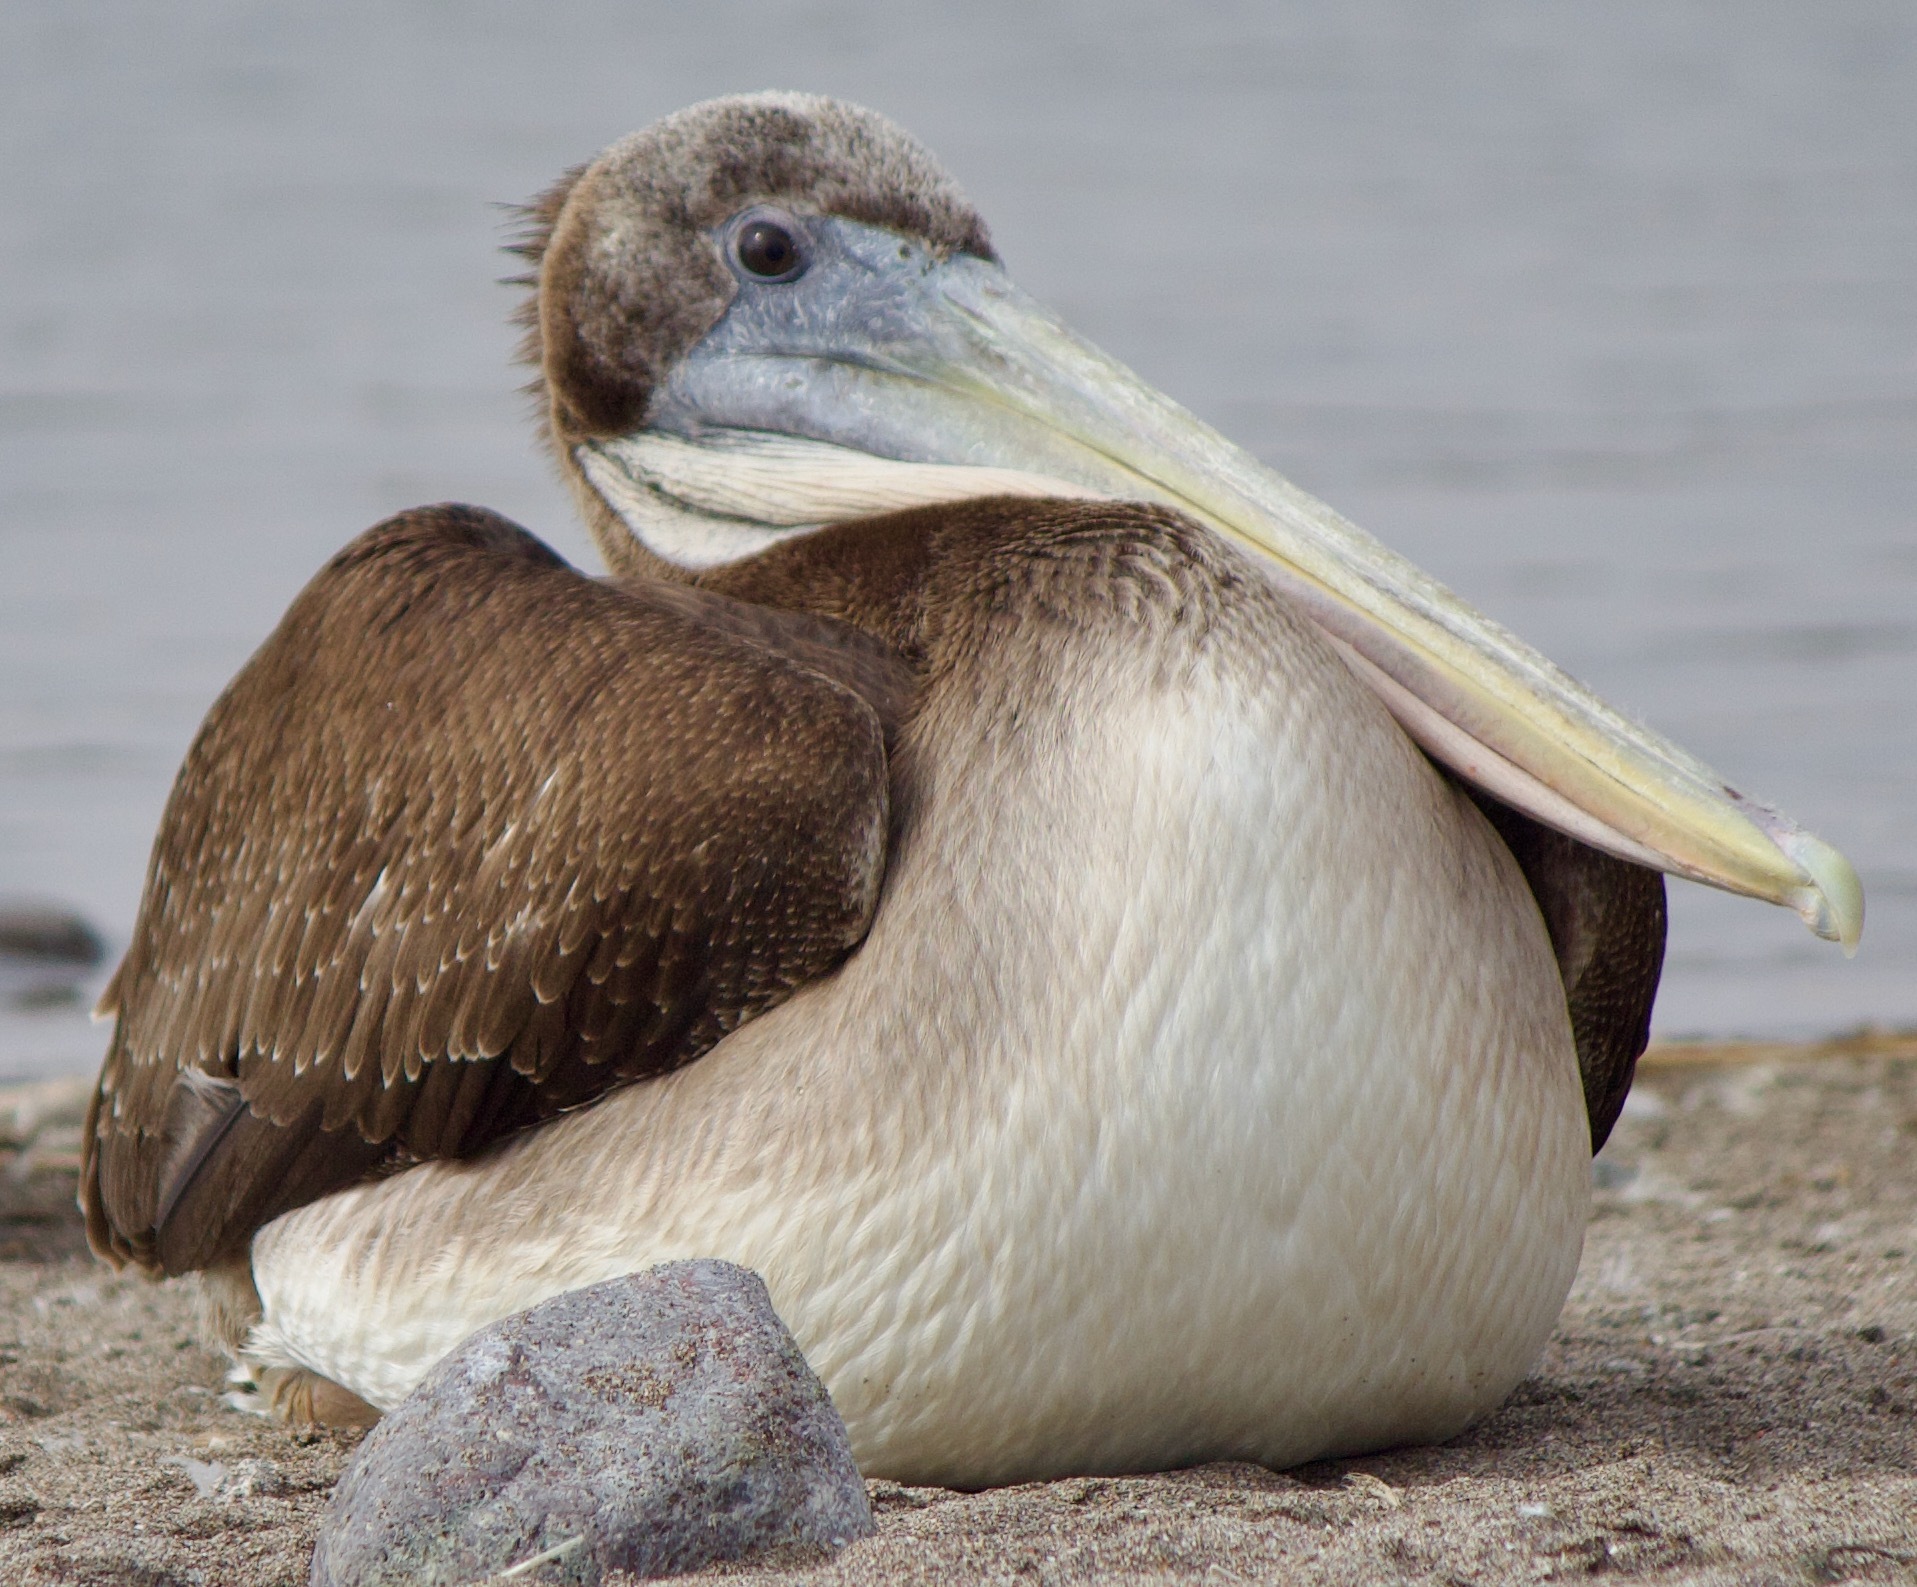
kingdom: Animalia
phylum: Chordata
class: Aves
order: Pelecaniformes
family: Pelecanidae
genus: Pelecanus
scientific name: Pelecanus thagus
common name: Peruvian pelican
